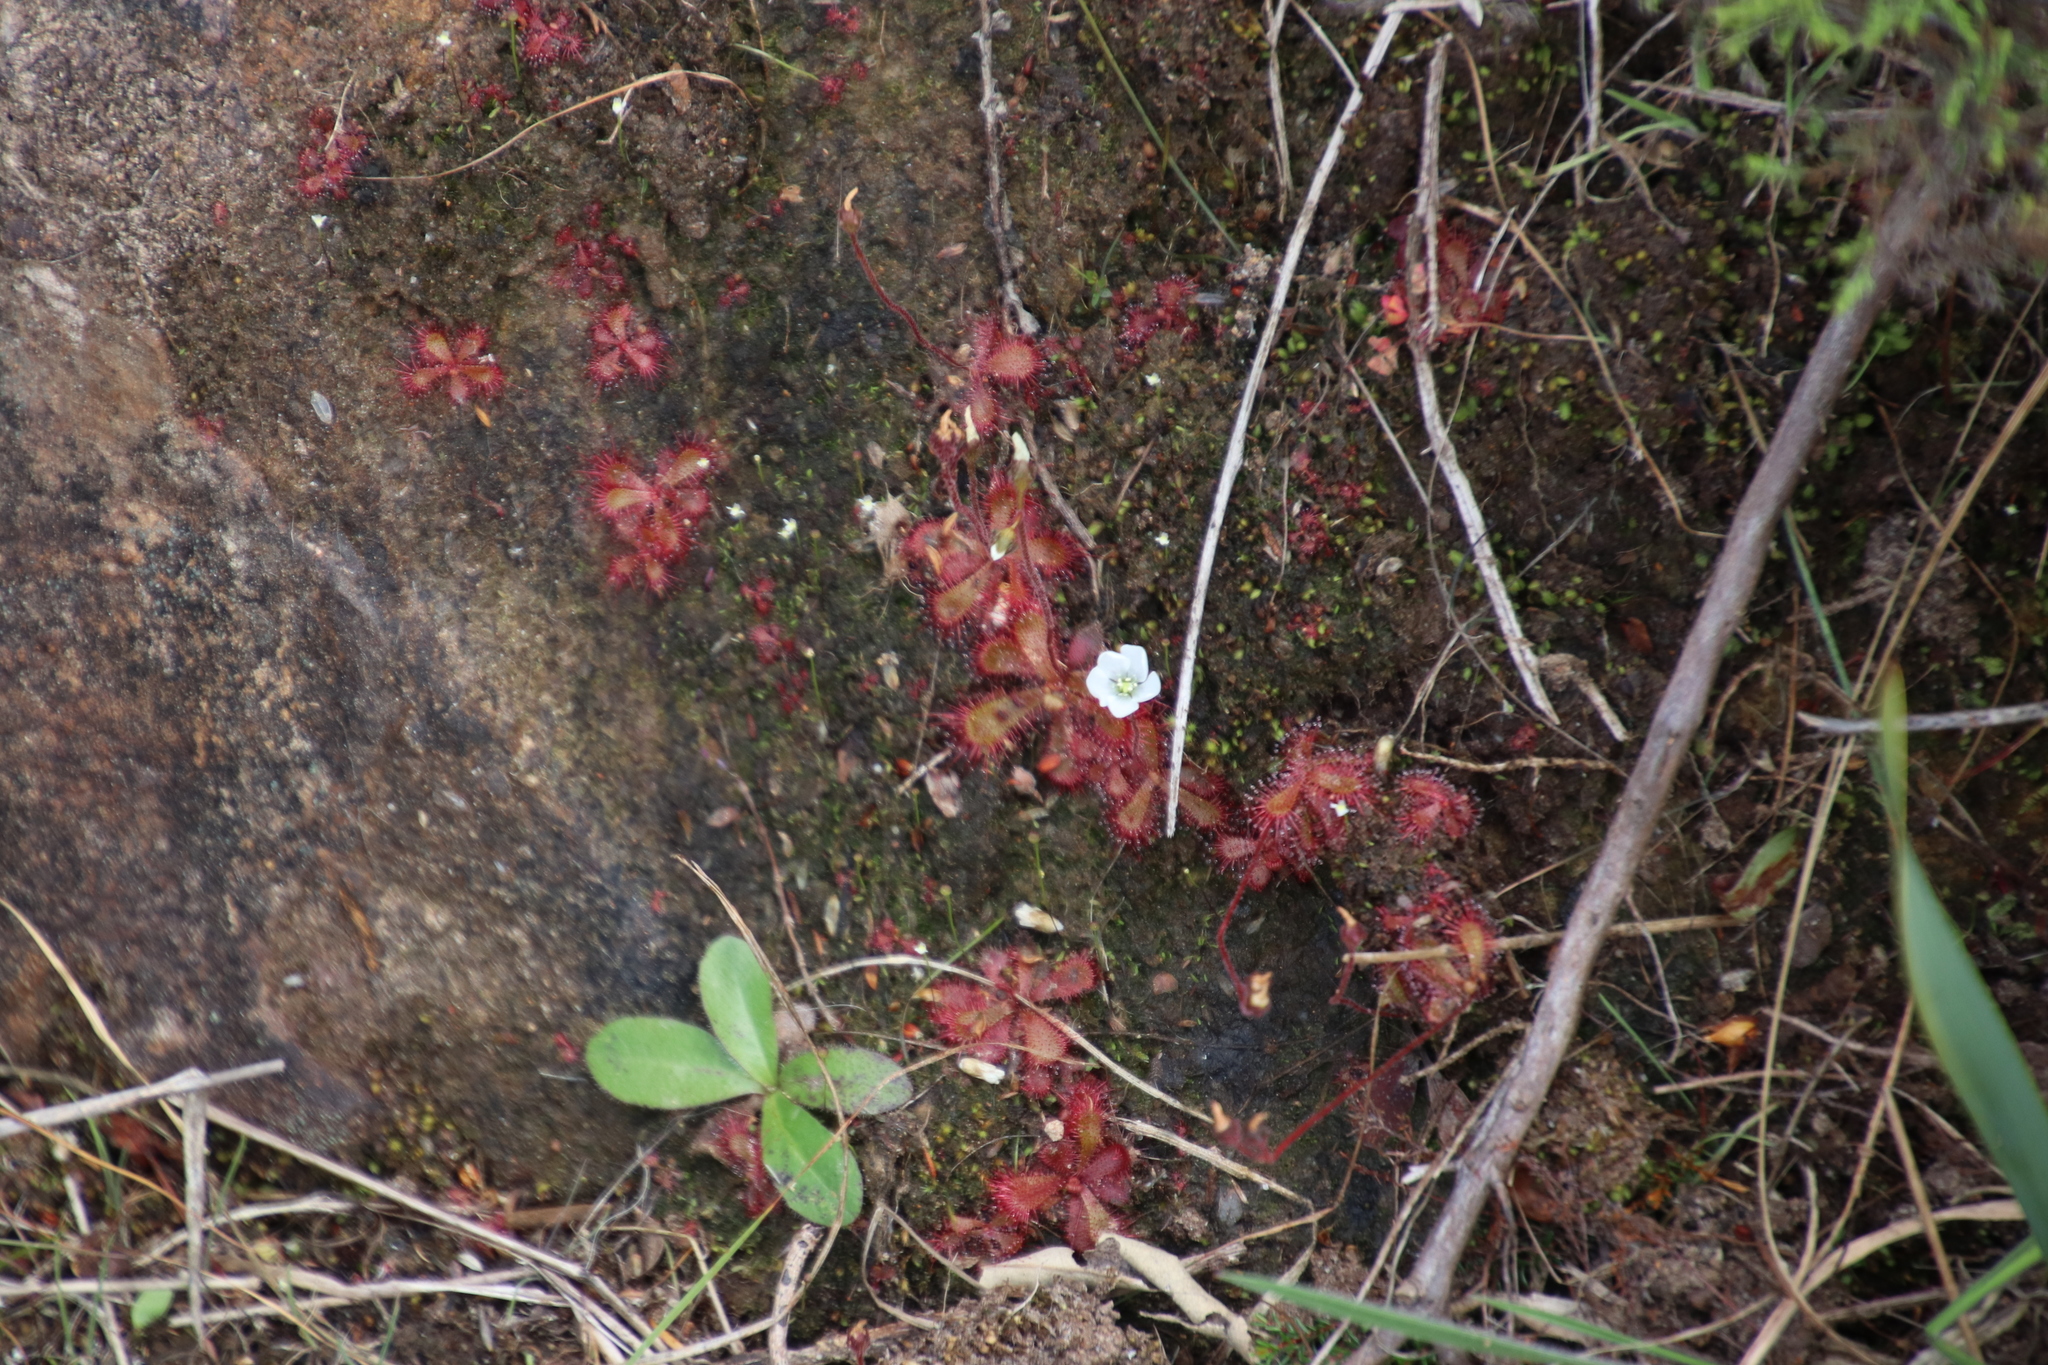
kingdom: Plantae
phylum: Tracheophyta
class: Magnoliopsida
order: Caryophyllales
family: Droseraceae
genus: Drosera
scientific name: Drosera trinervia
